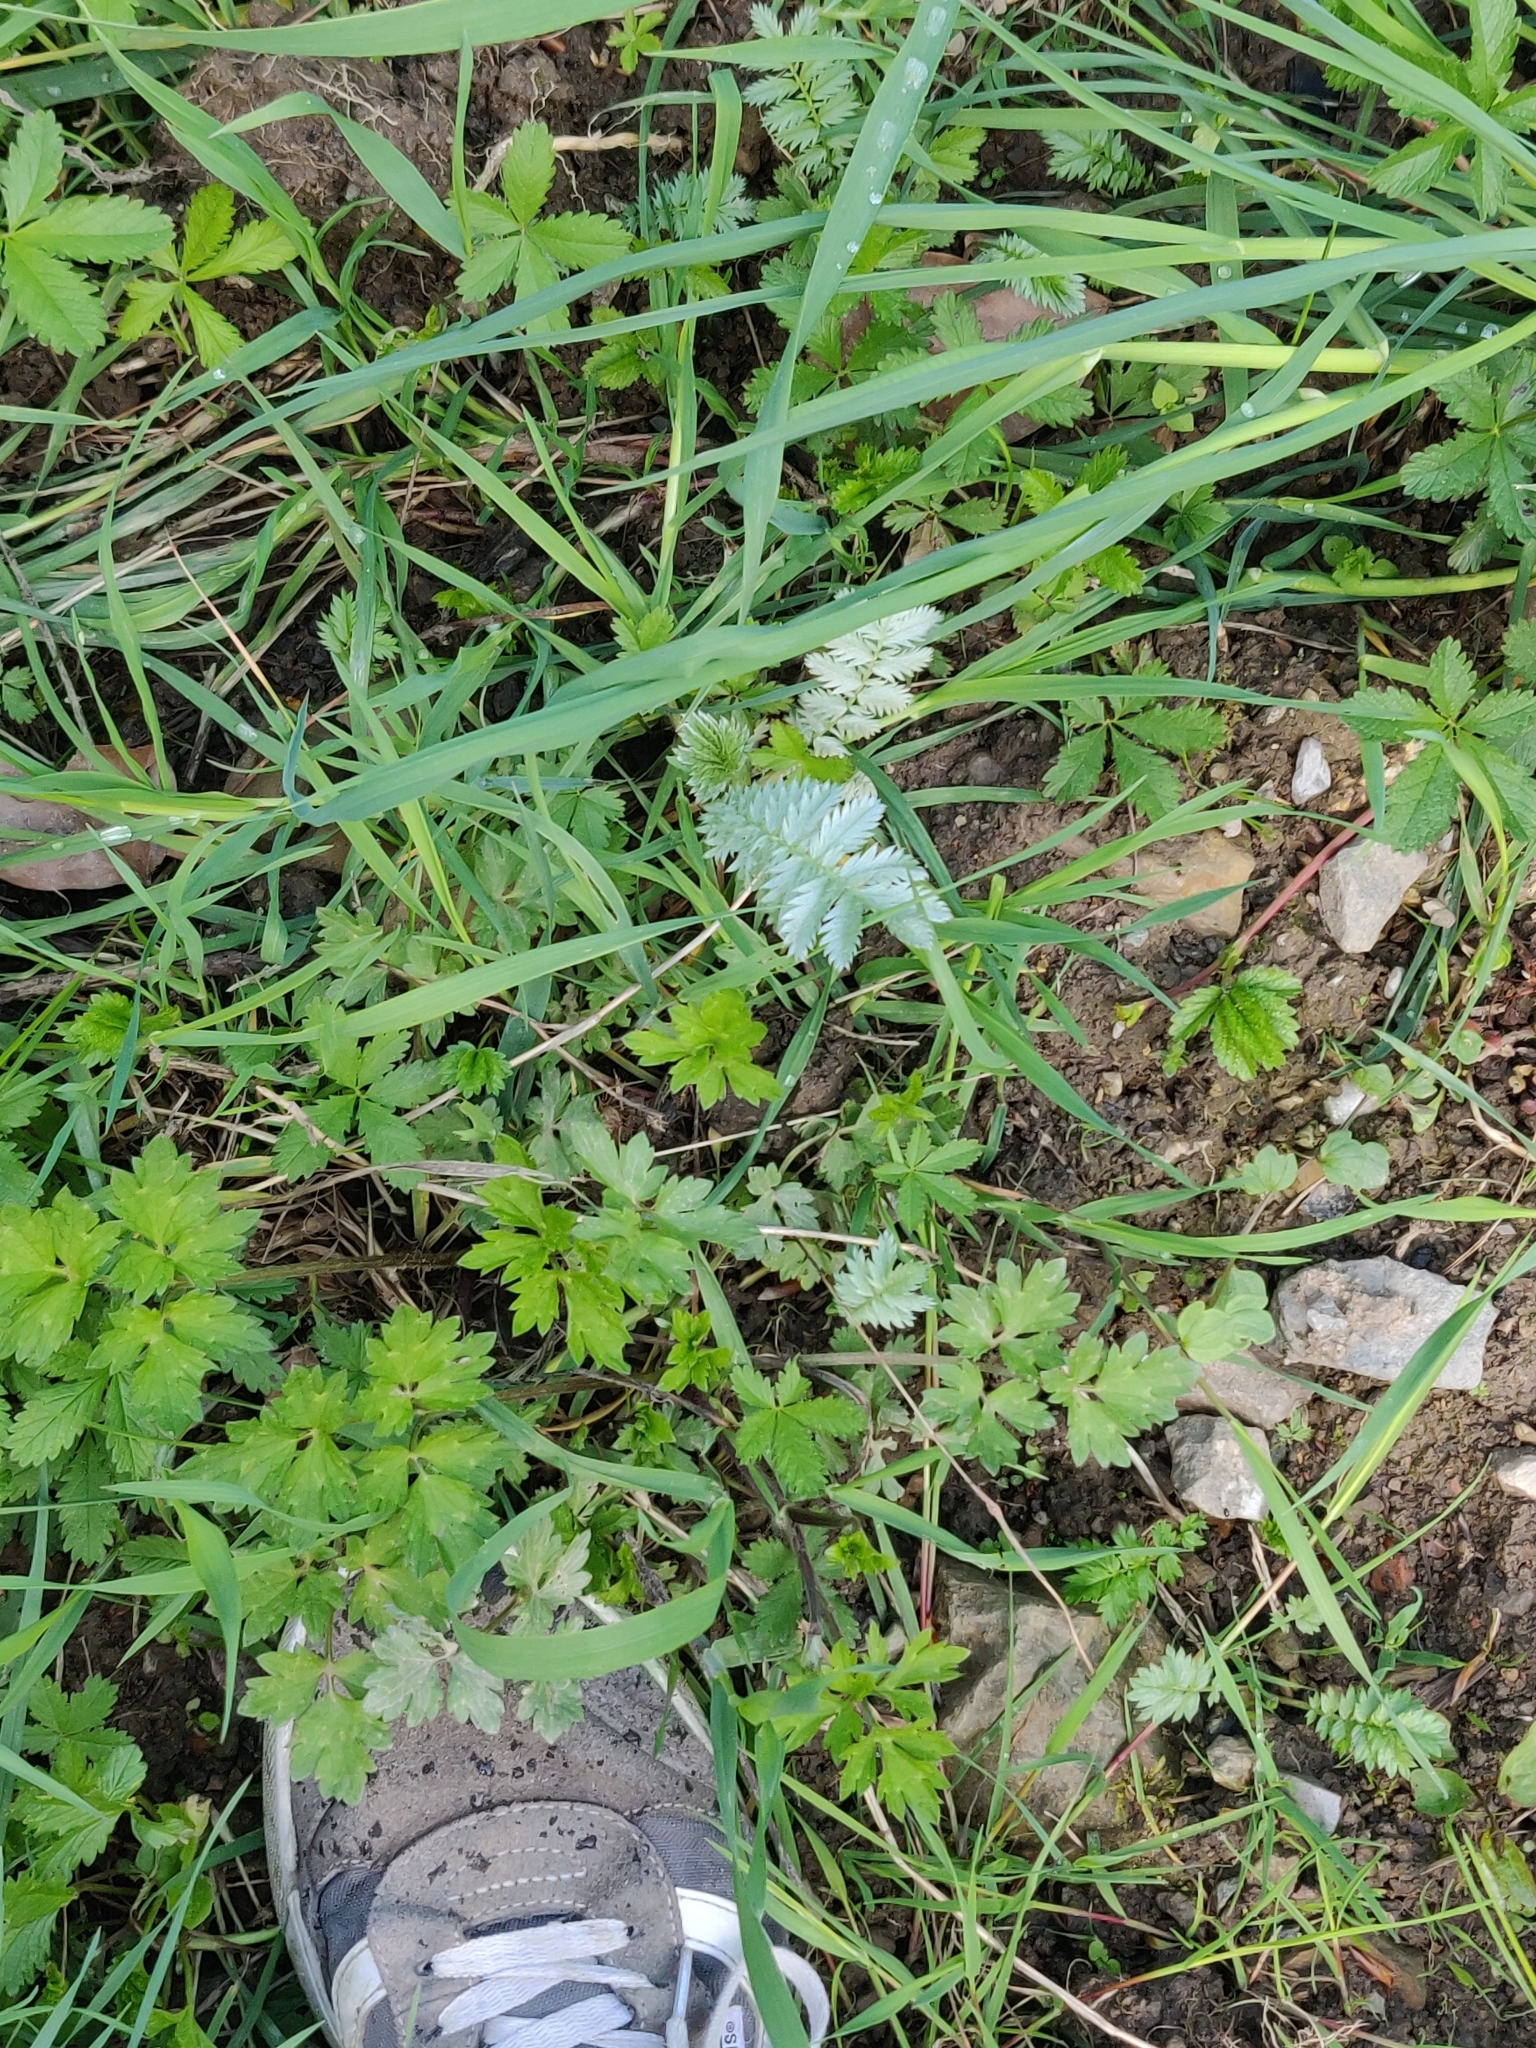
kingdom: Plantae
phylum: Tracheophyta
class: Magnoliopsida
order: Rosales
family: Rosaceae
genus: Argentina
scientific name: Argentina anserina
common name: Common silverweed
